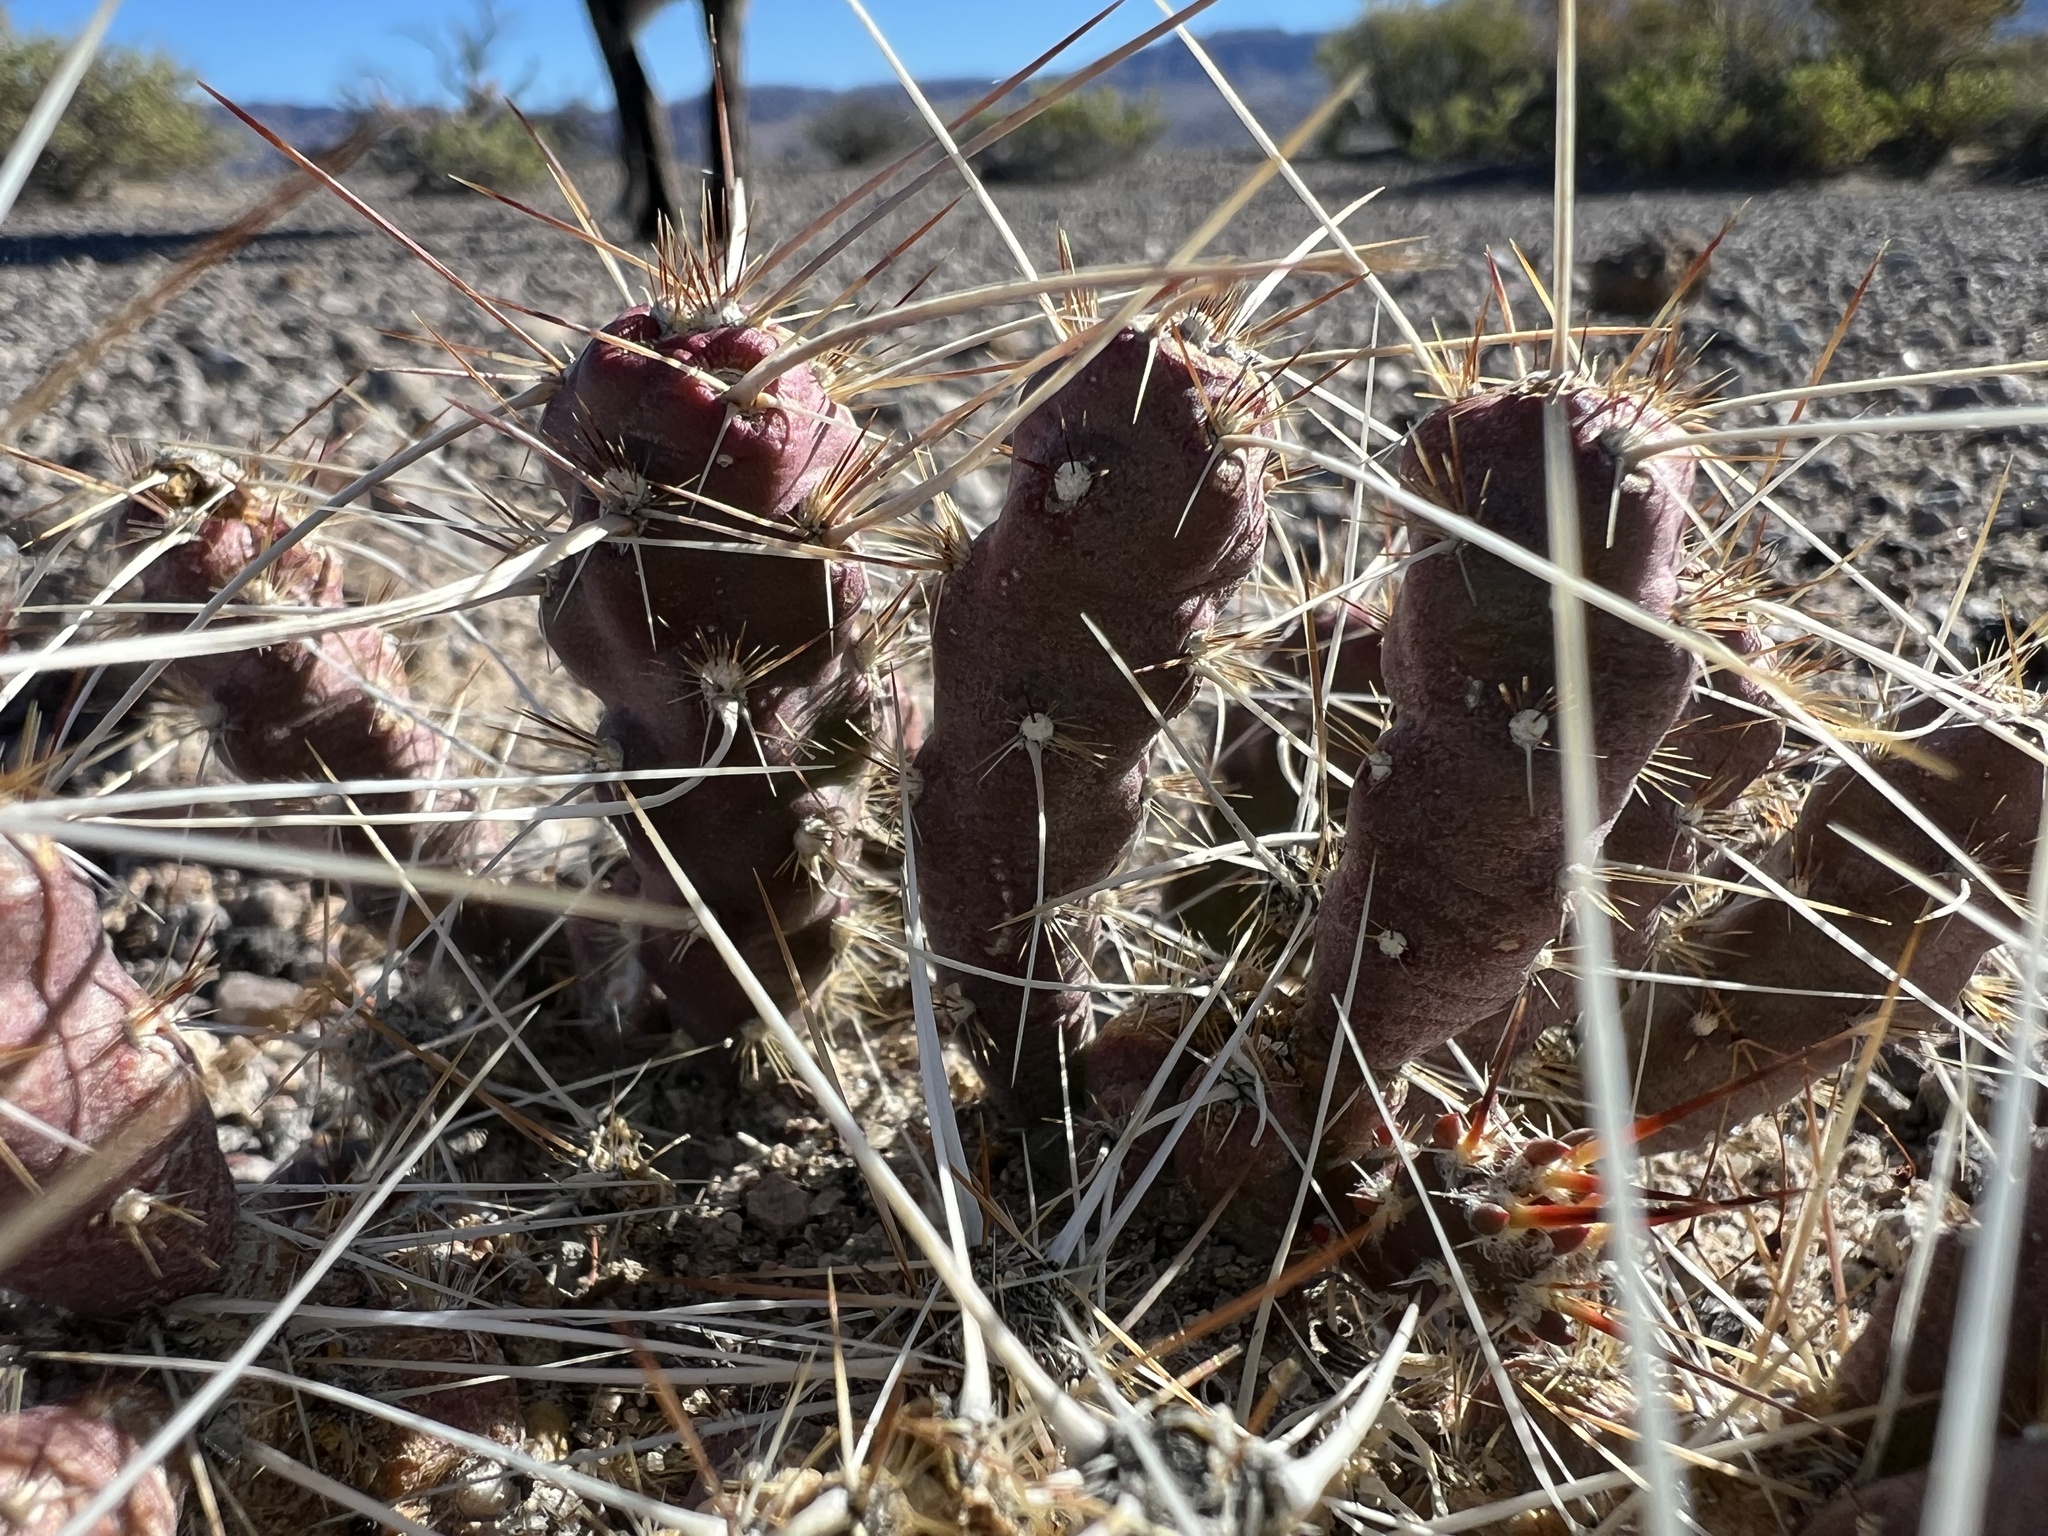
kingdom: Plantae
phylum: Tracheophyta
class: Magnoliopsida
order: Caryophyllales
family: Cactaceae
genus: Micropuntia
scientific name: Micropuntia pulchella
